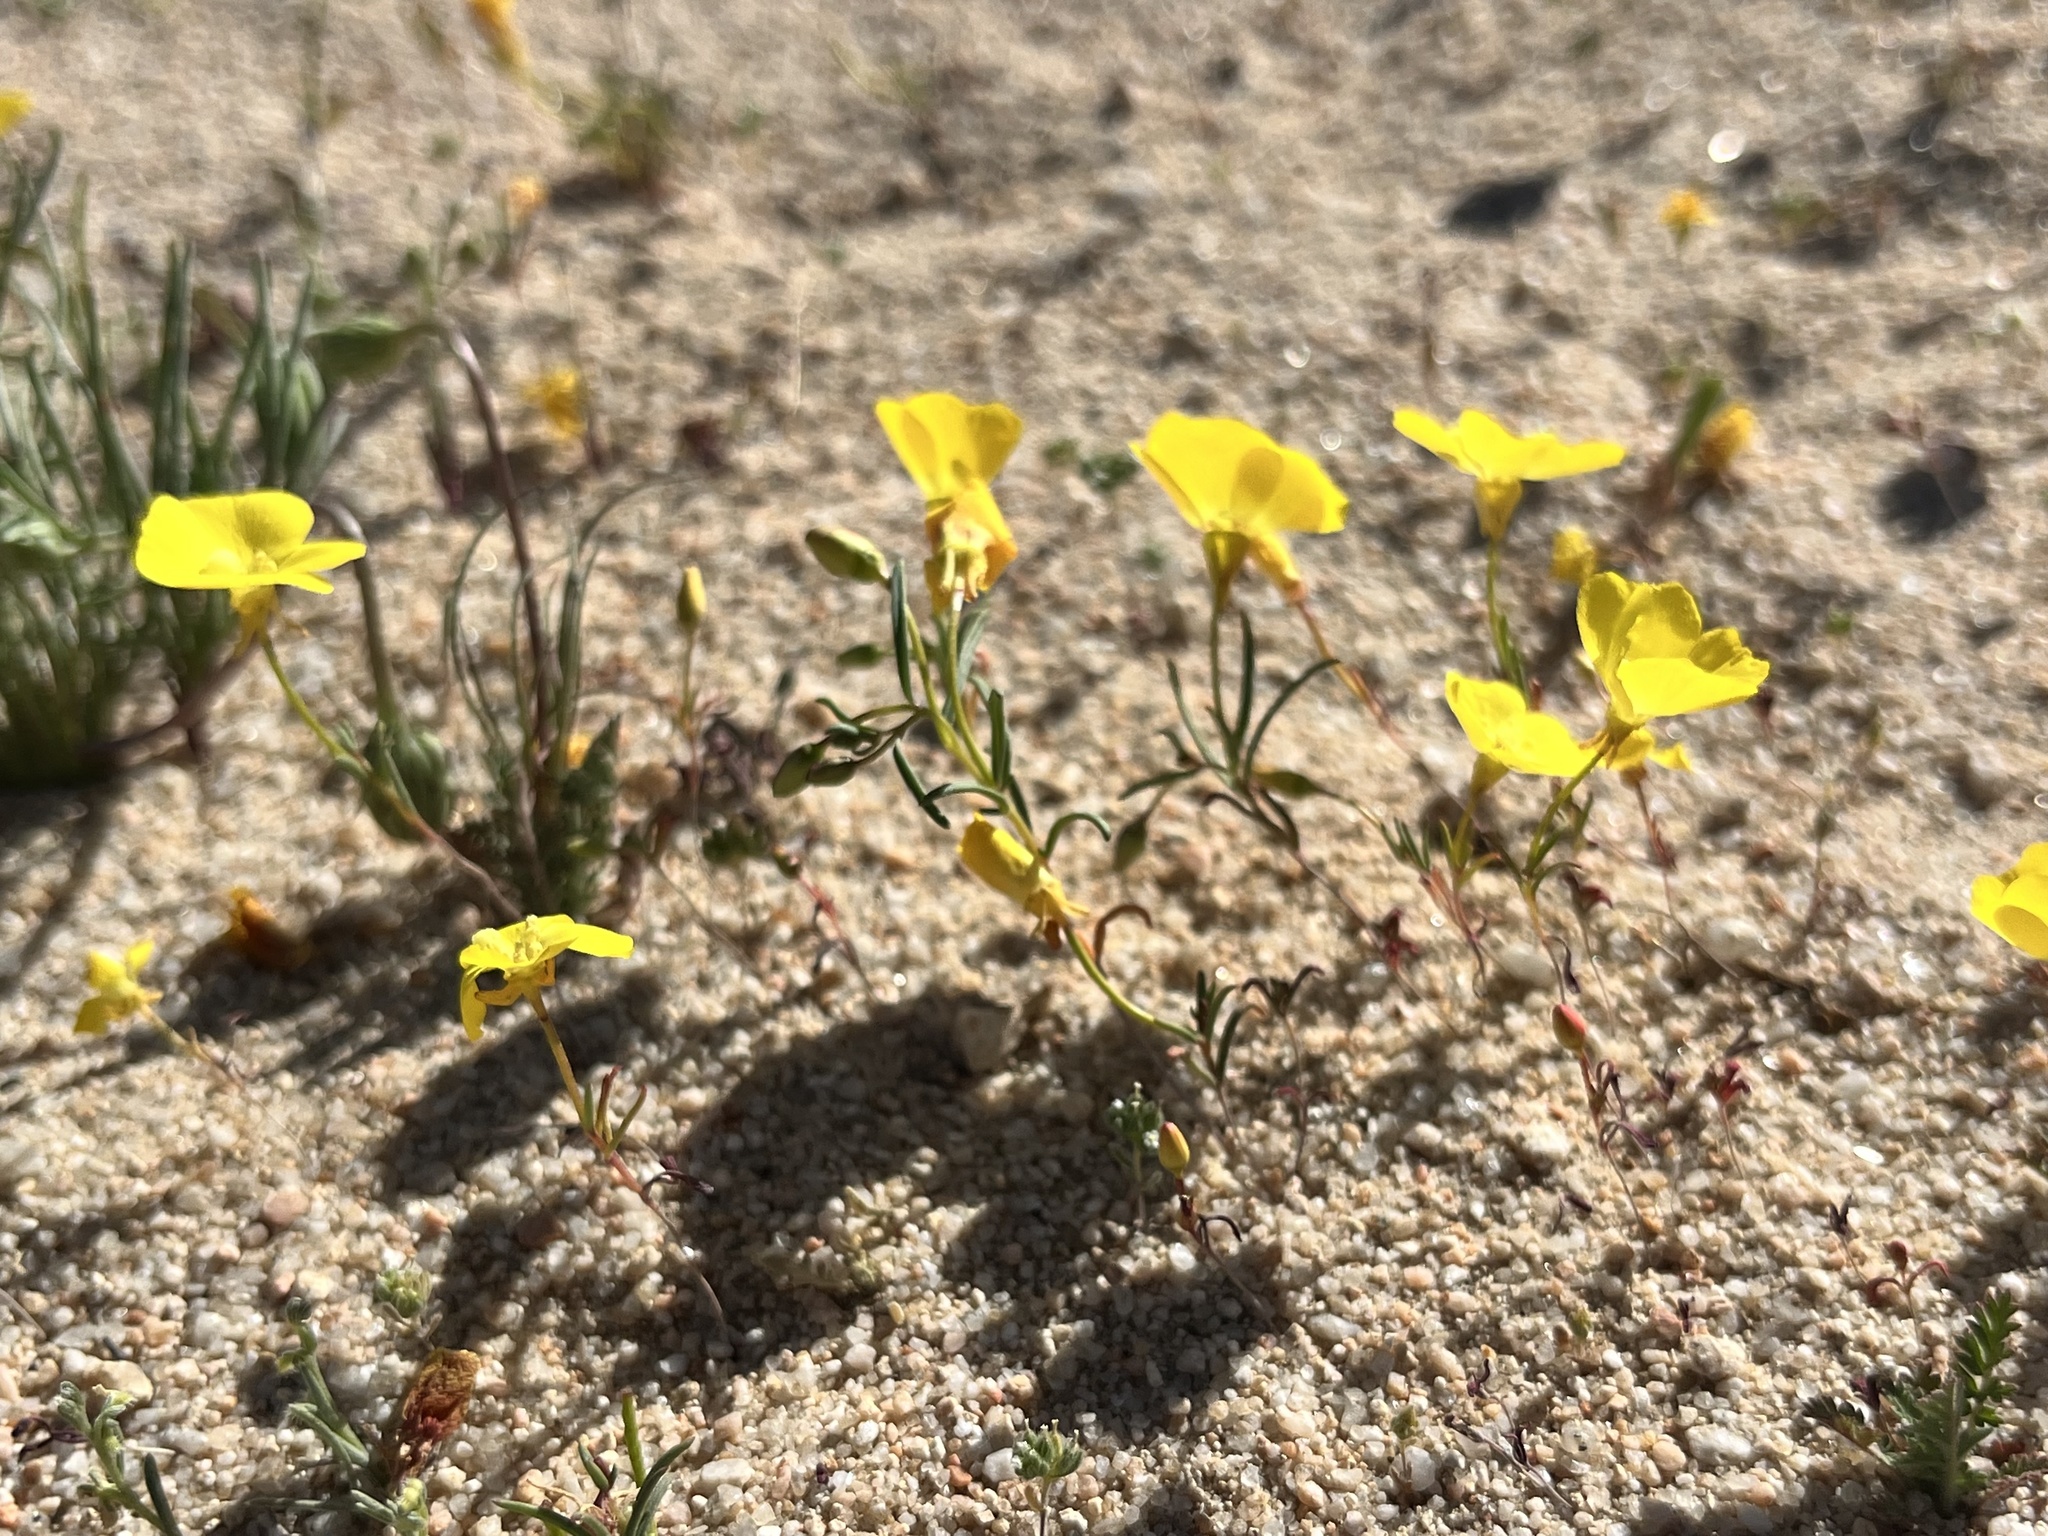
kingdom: Plantae
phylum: Tracheophyta
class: Magnoliopsida
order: Myrtales
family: Onagraceae
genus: Camissonia
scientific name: Camissonia campestris
